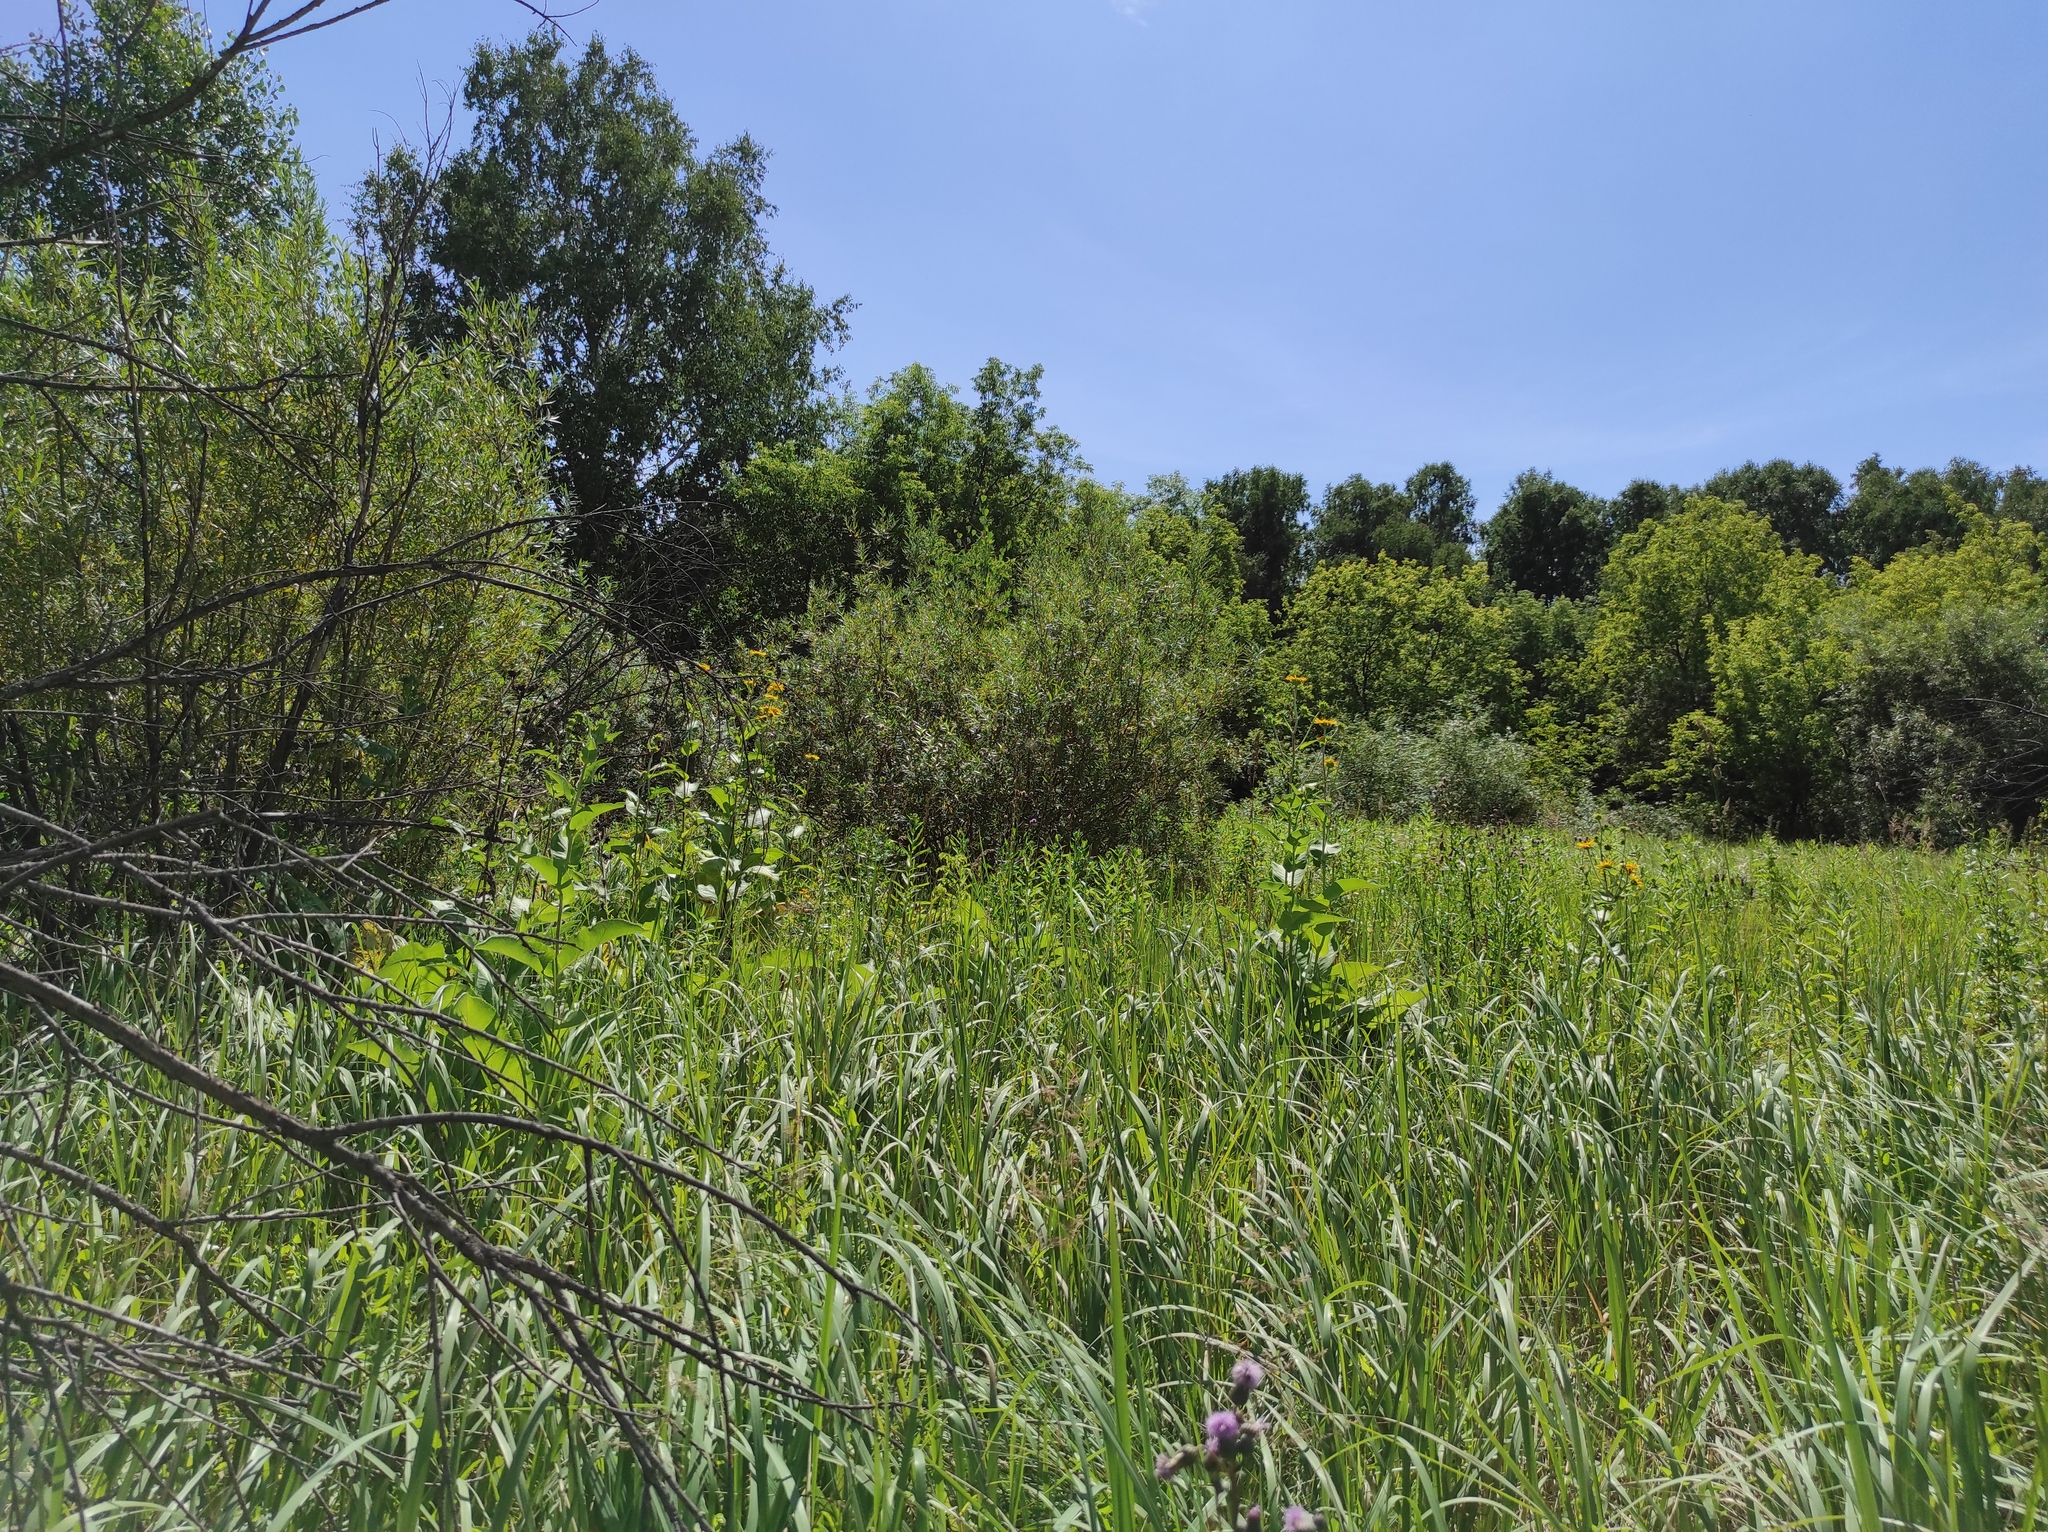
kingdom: Plantae
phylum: Tracheophyta
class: Magnoliopsida
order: Asterales
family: Asteraceae
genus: Inula
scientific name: Inula helenium
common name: Elecampane
